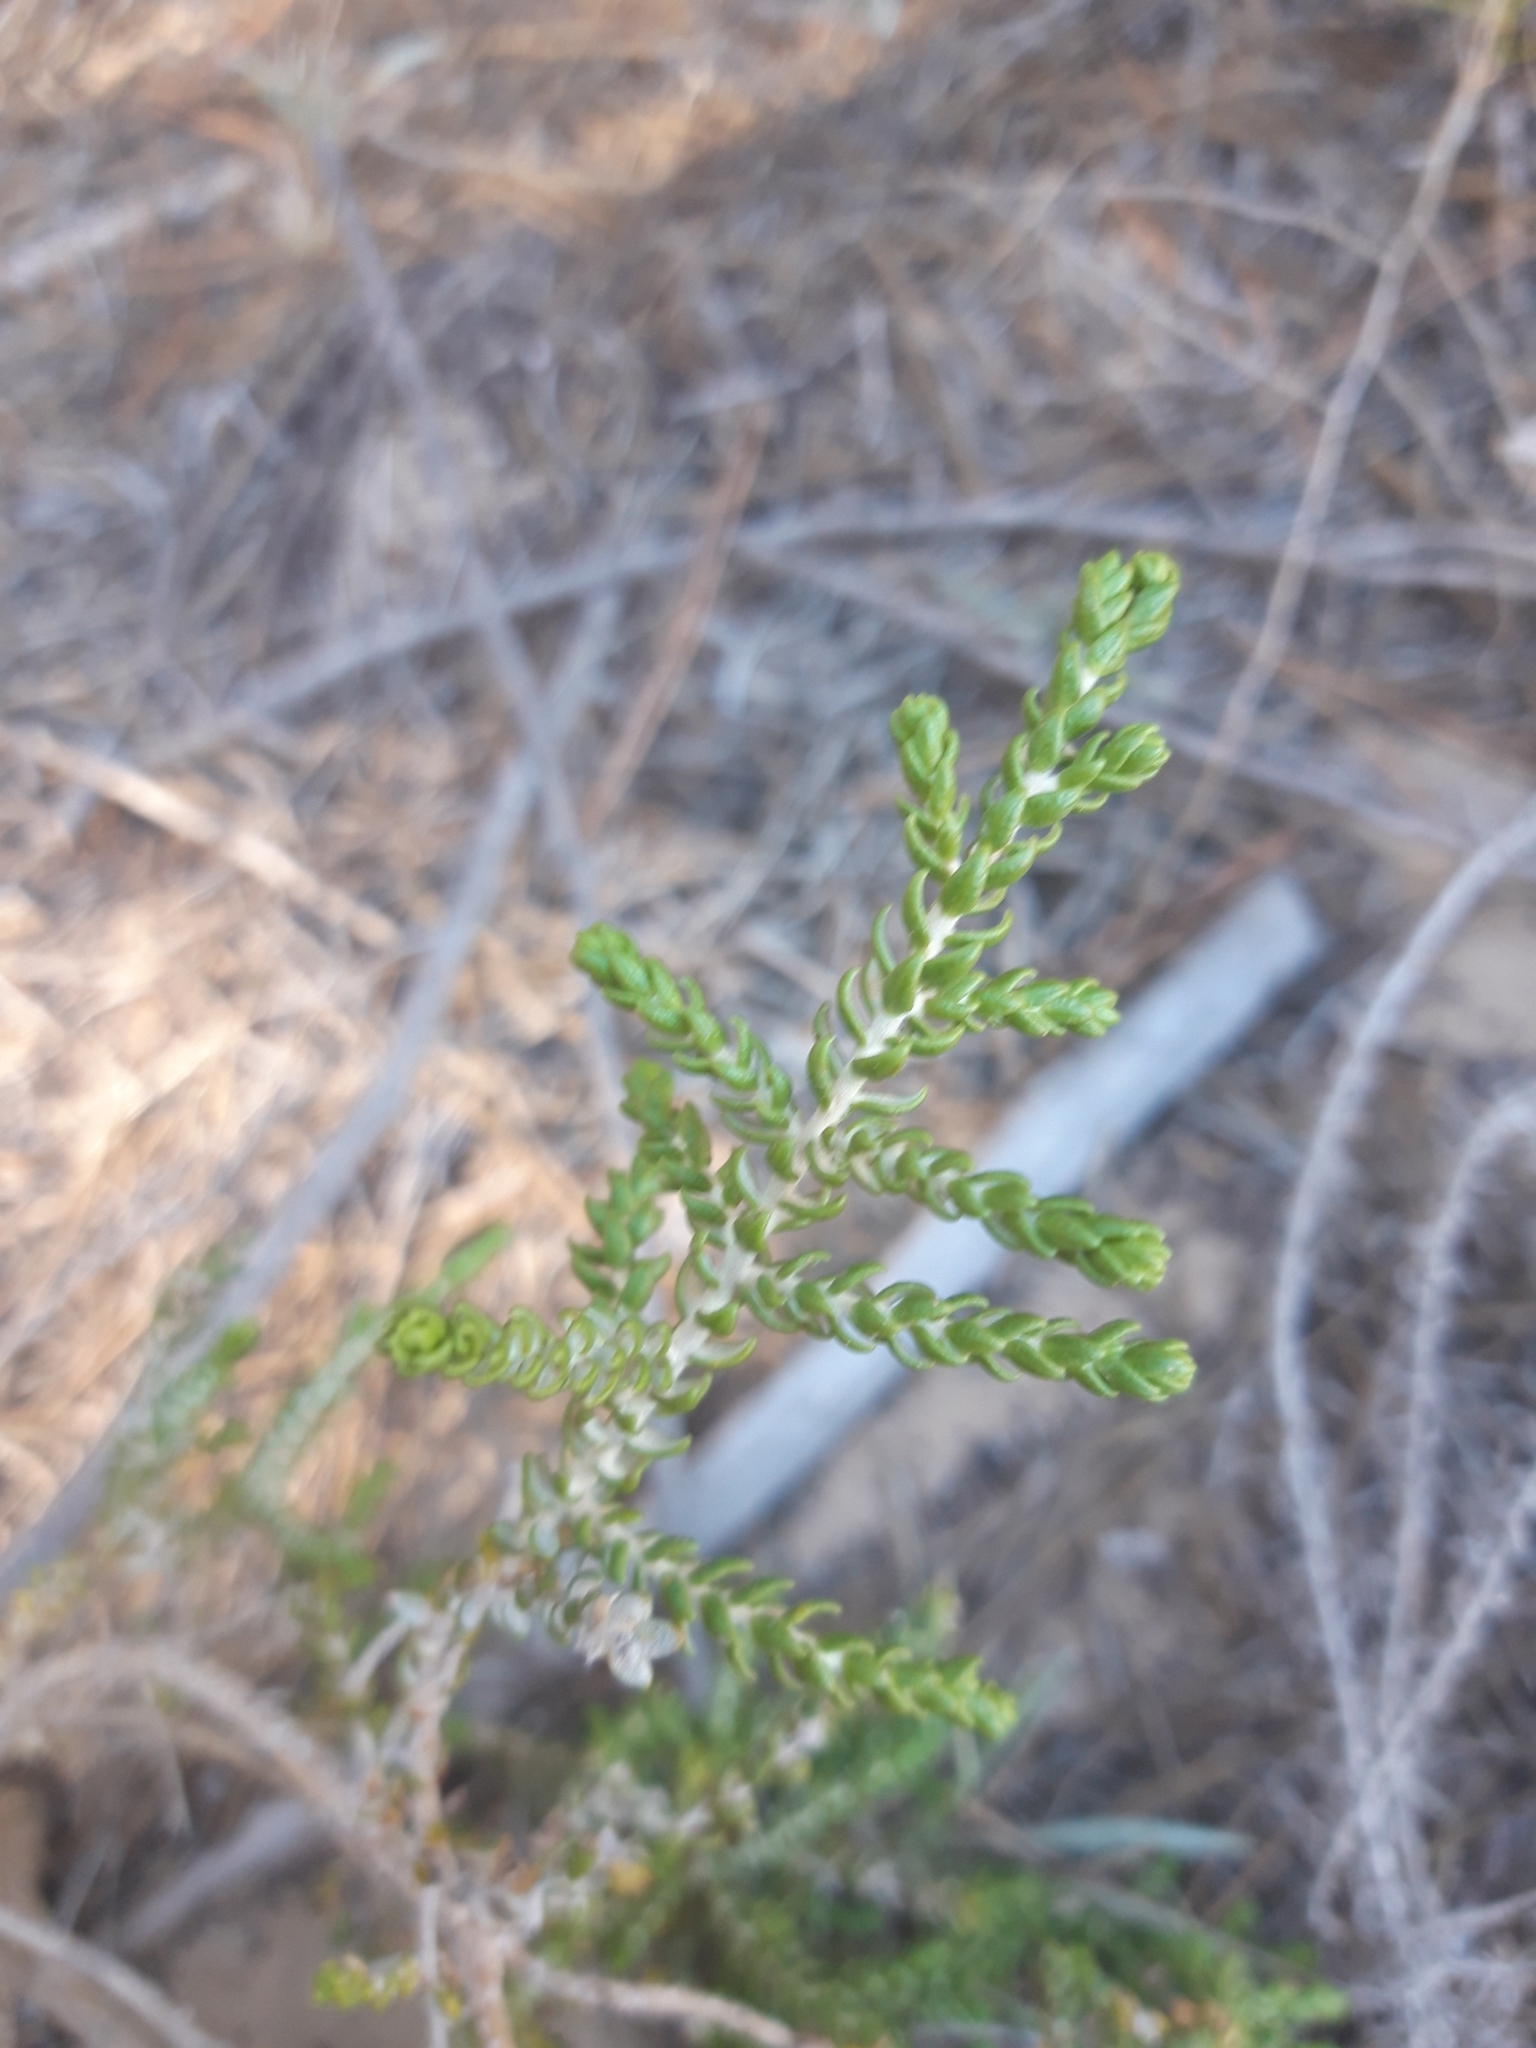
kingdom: Plantae
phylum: Tracheophyta
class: Magnoliopsida
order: Malvales
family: Thymelaeaceae
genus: Thymelaea
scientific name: Thymelaea hirsuta
